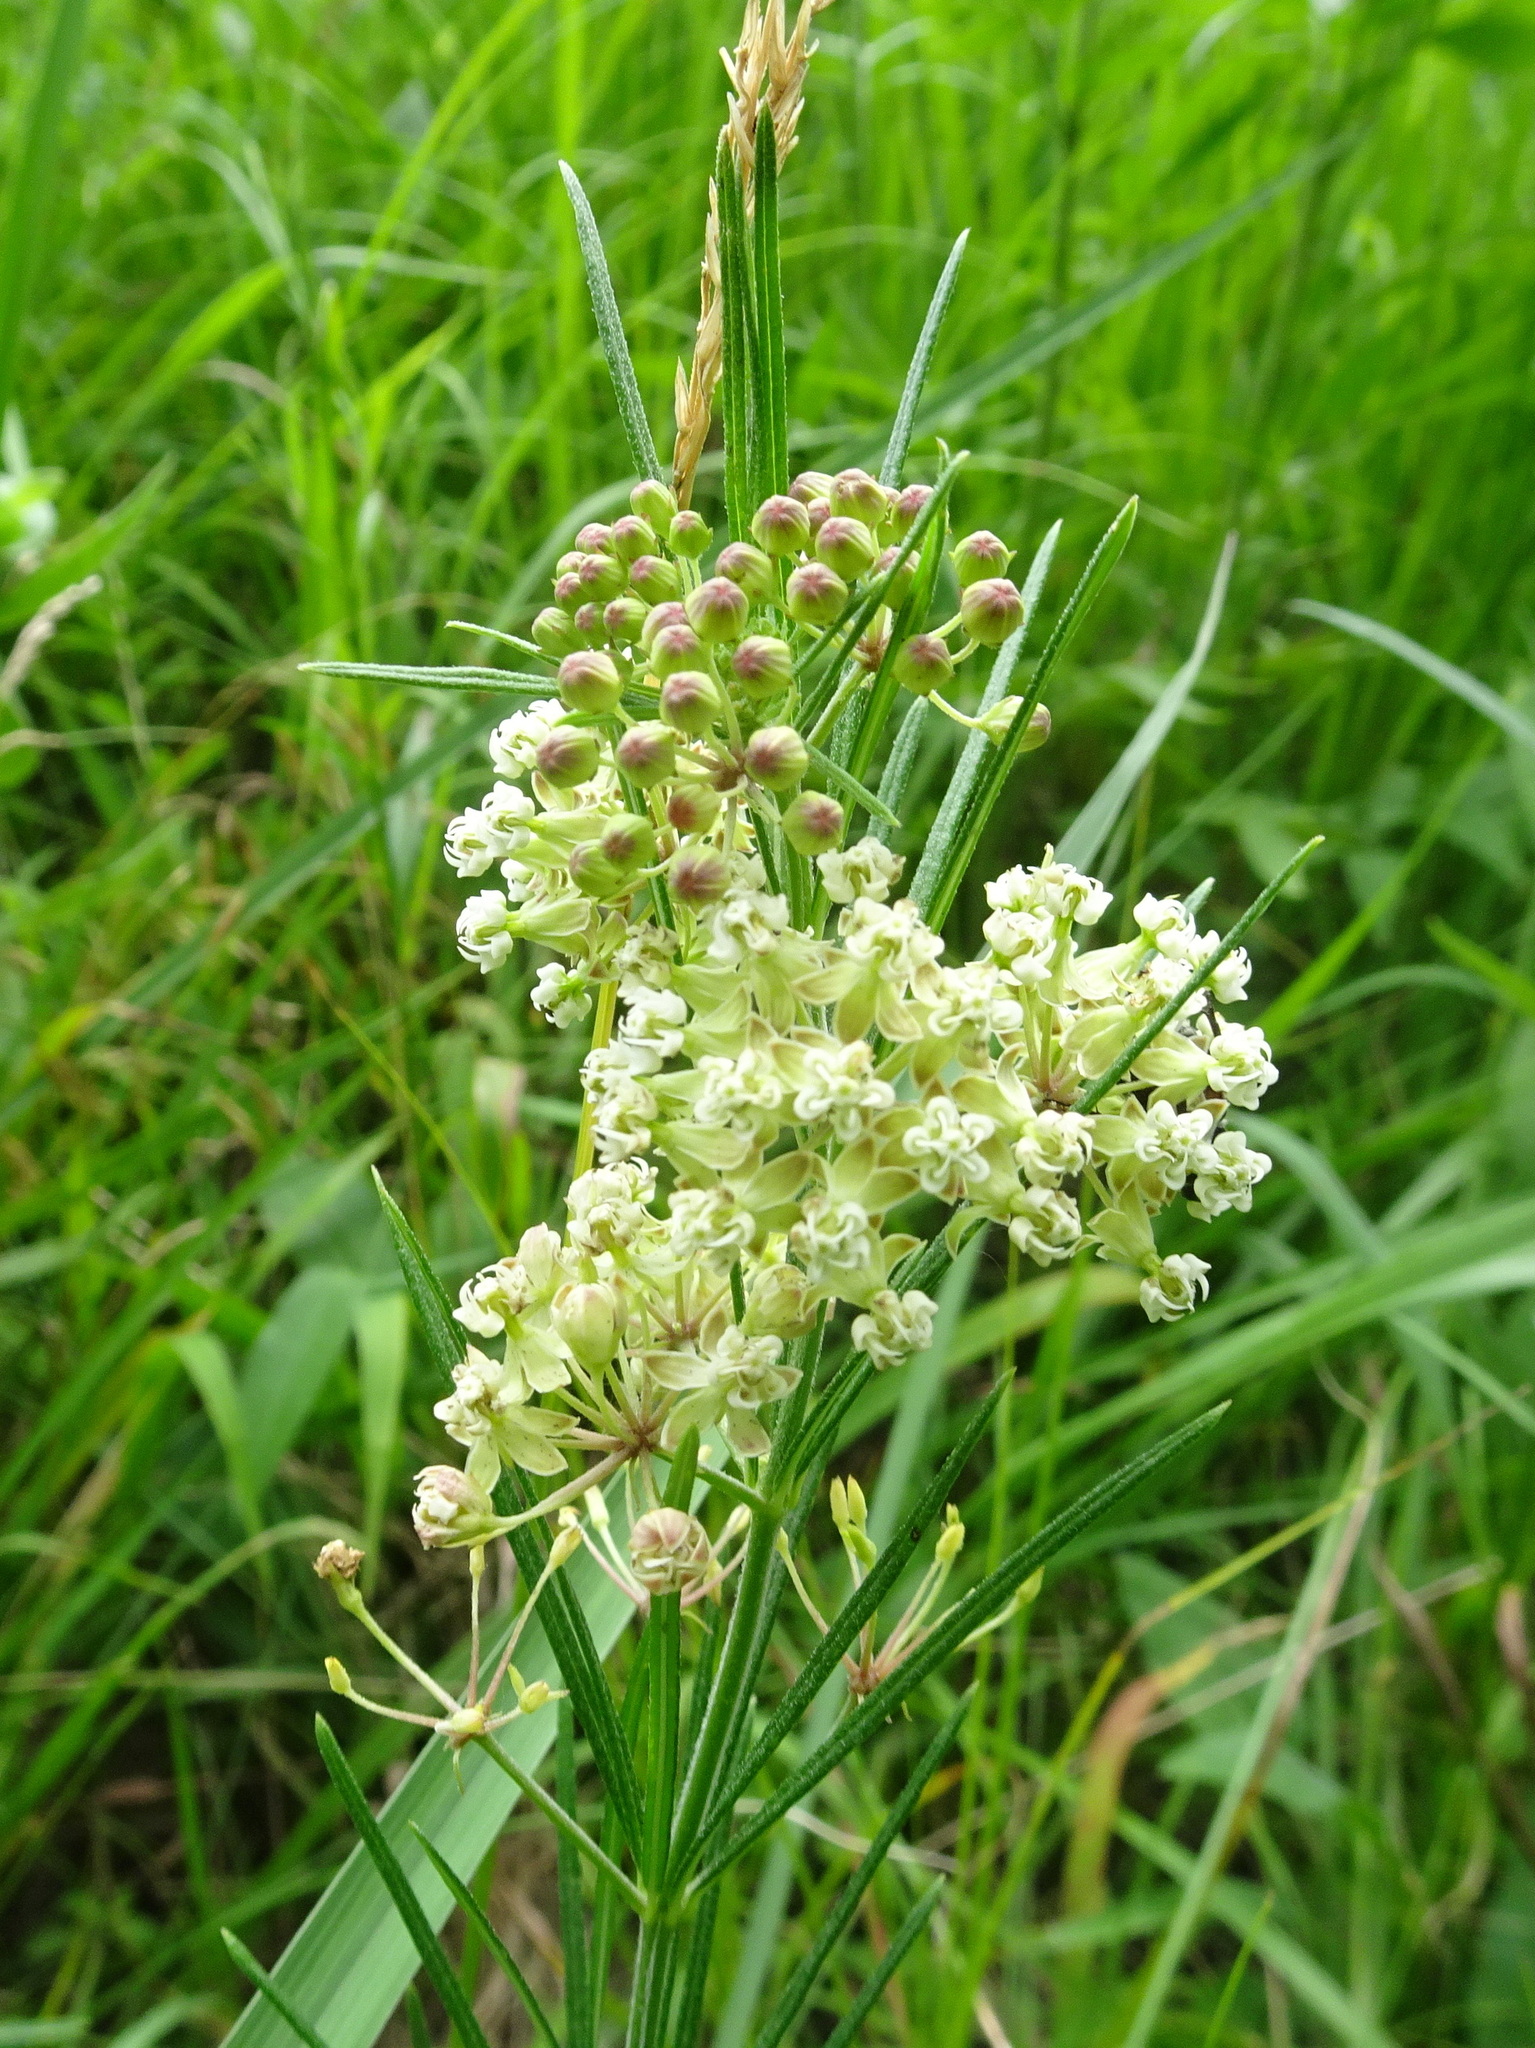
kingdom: Plantae
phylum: Tracheophyta
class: Magnoliopsida
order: Gentianales
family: Apocynaceae
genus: Asclepias
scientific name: Asclepias verticillata
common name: Eastern whorled milkweed
